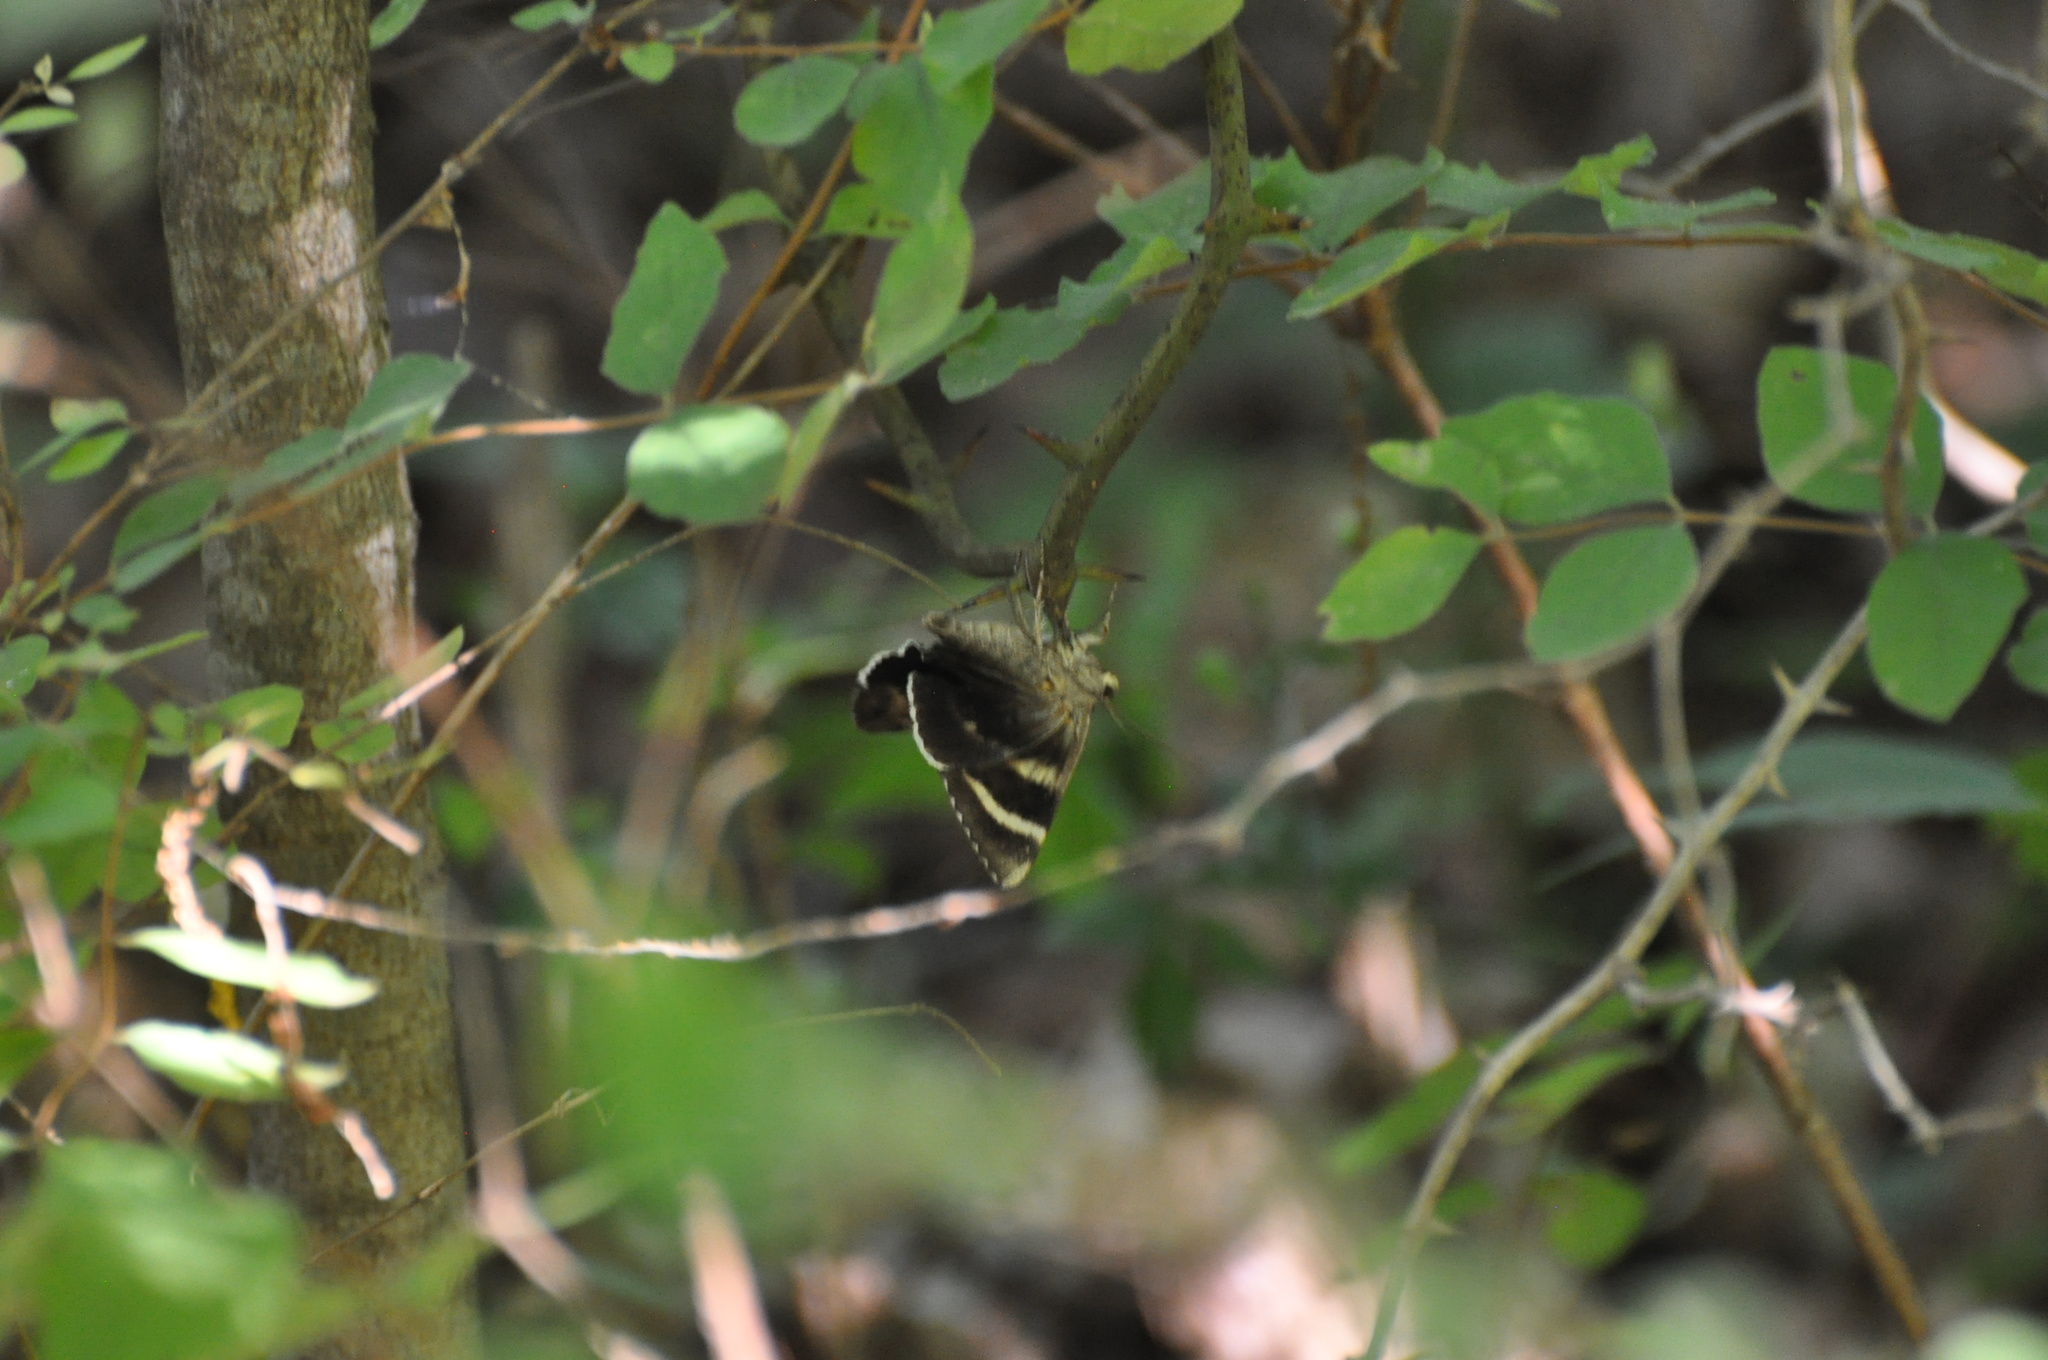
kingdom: Animalia
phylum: Arthropoda
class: Insecta
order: Lepidoptera
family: Erebidae
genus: Catocala
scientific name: Catocala epione
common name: Epione underwing
